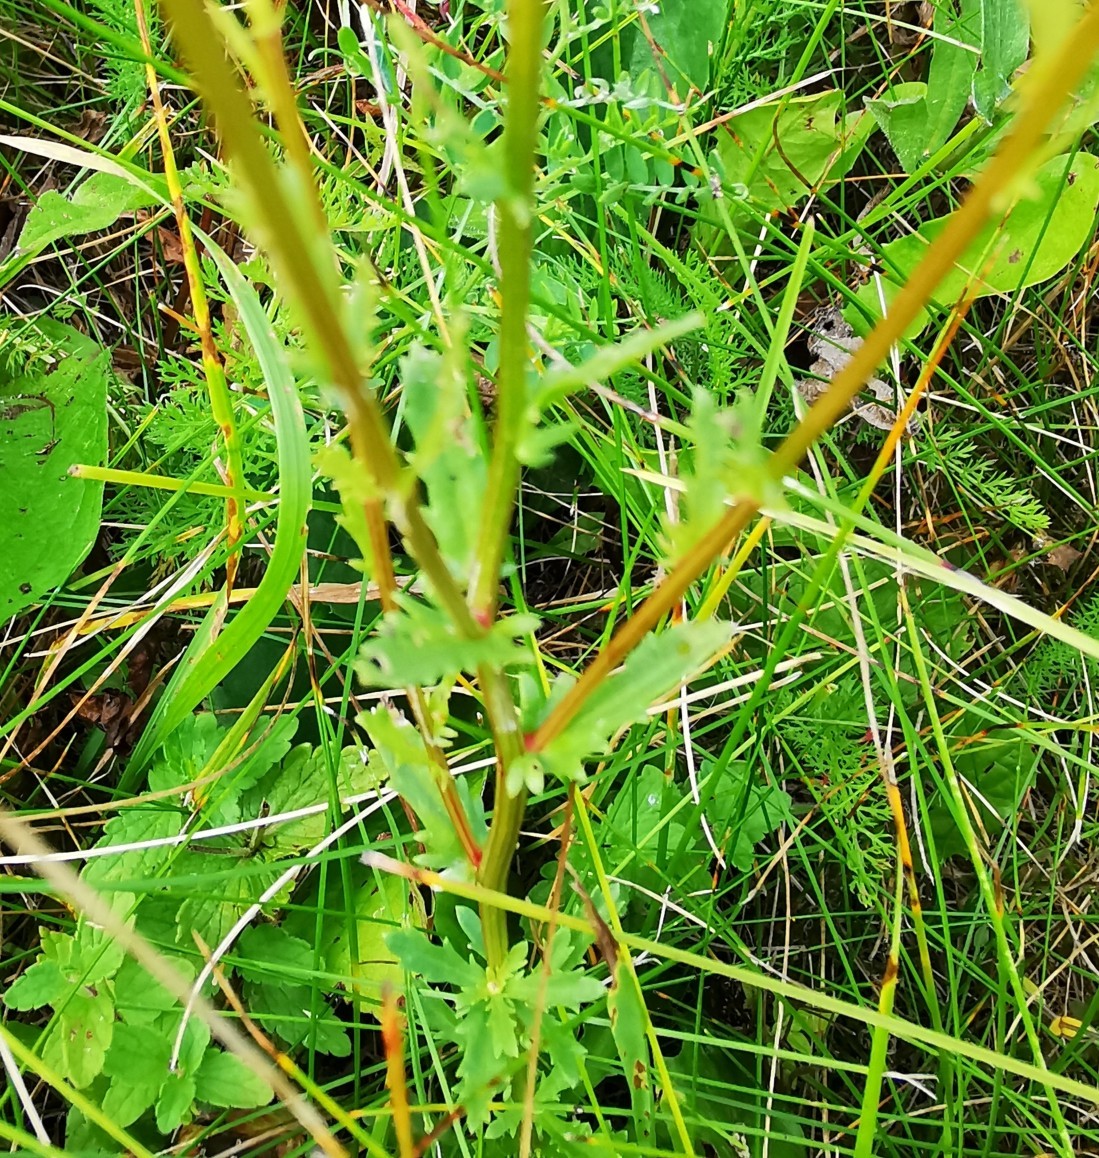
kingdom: Plantae
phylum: Tracheophyta
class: Magnoliopsida
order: Asterales
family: Asteraceae
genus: Leucanthemum
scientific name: Leucanthemum vulgare
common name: Oxeye daisy
